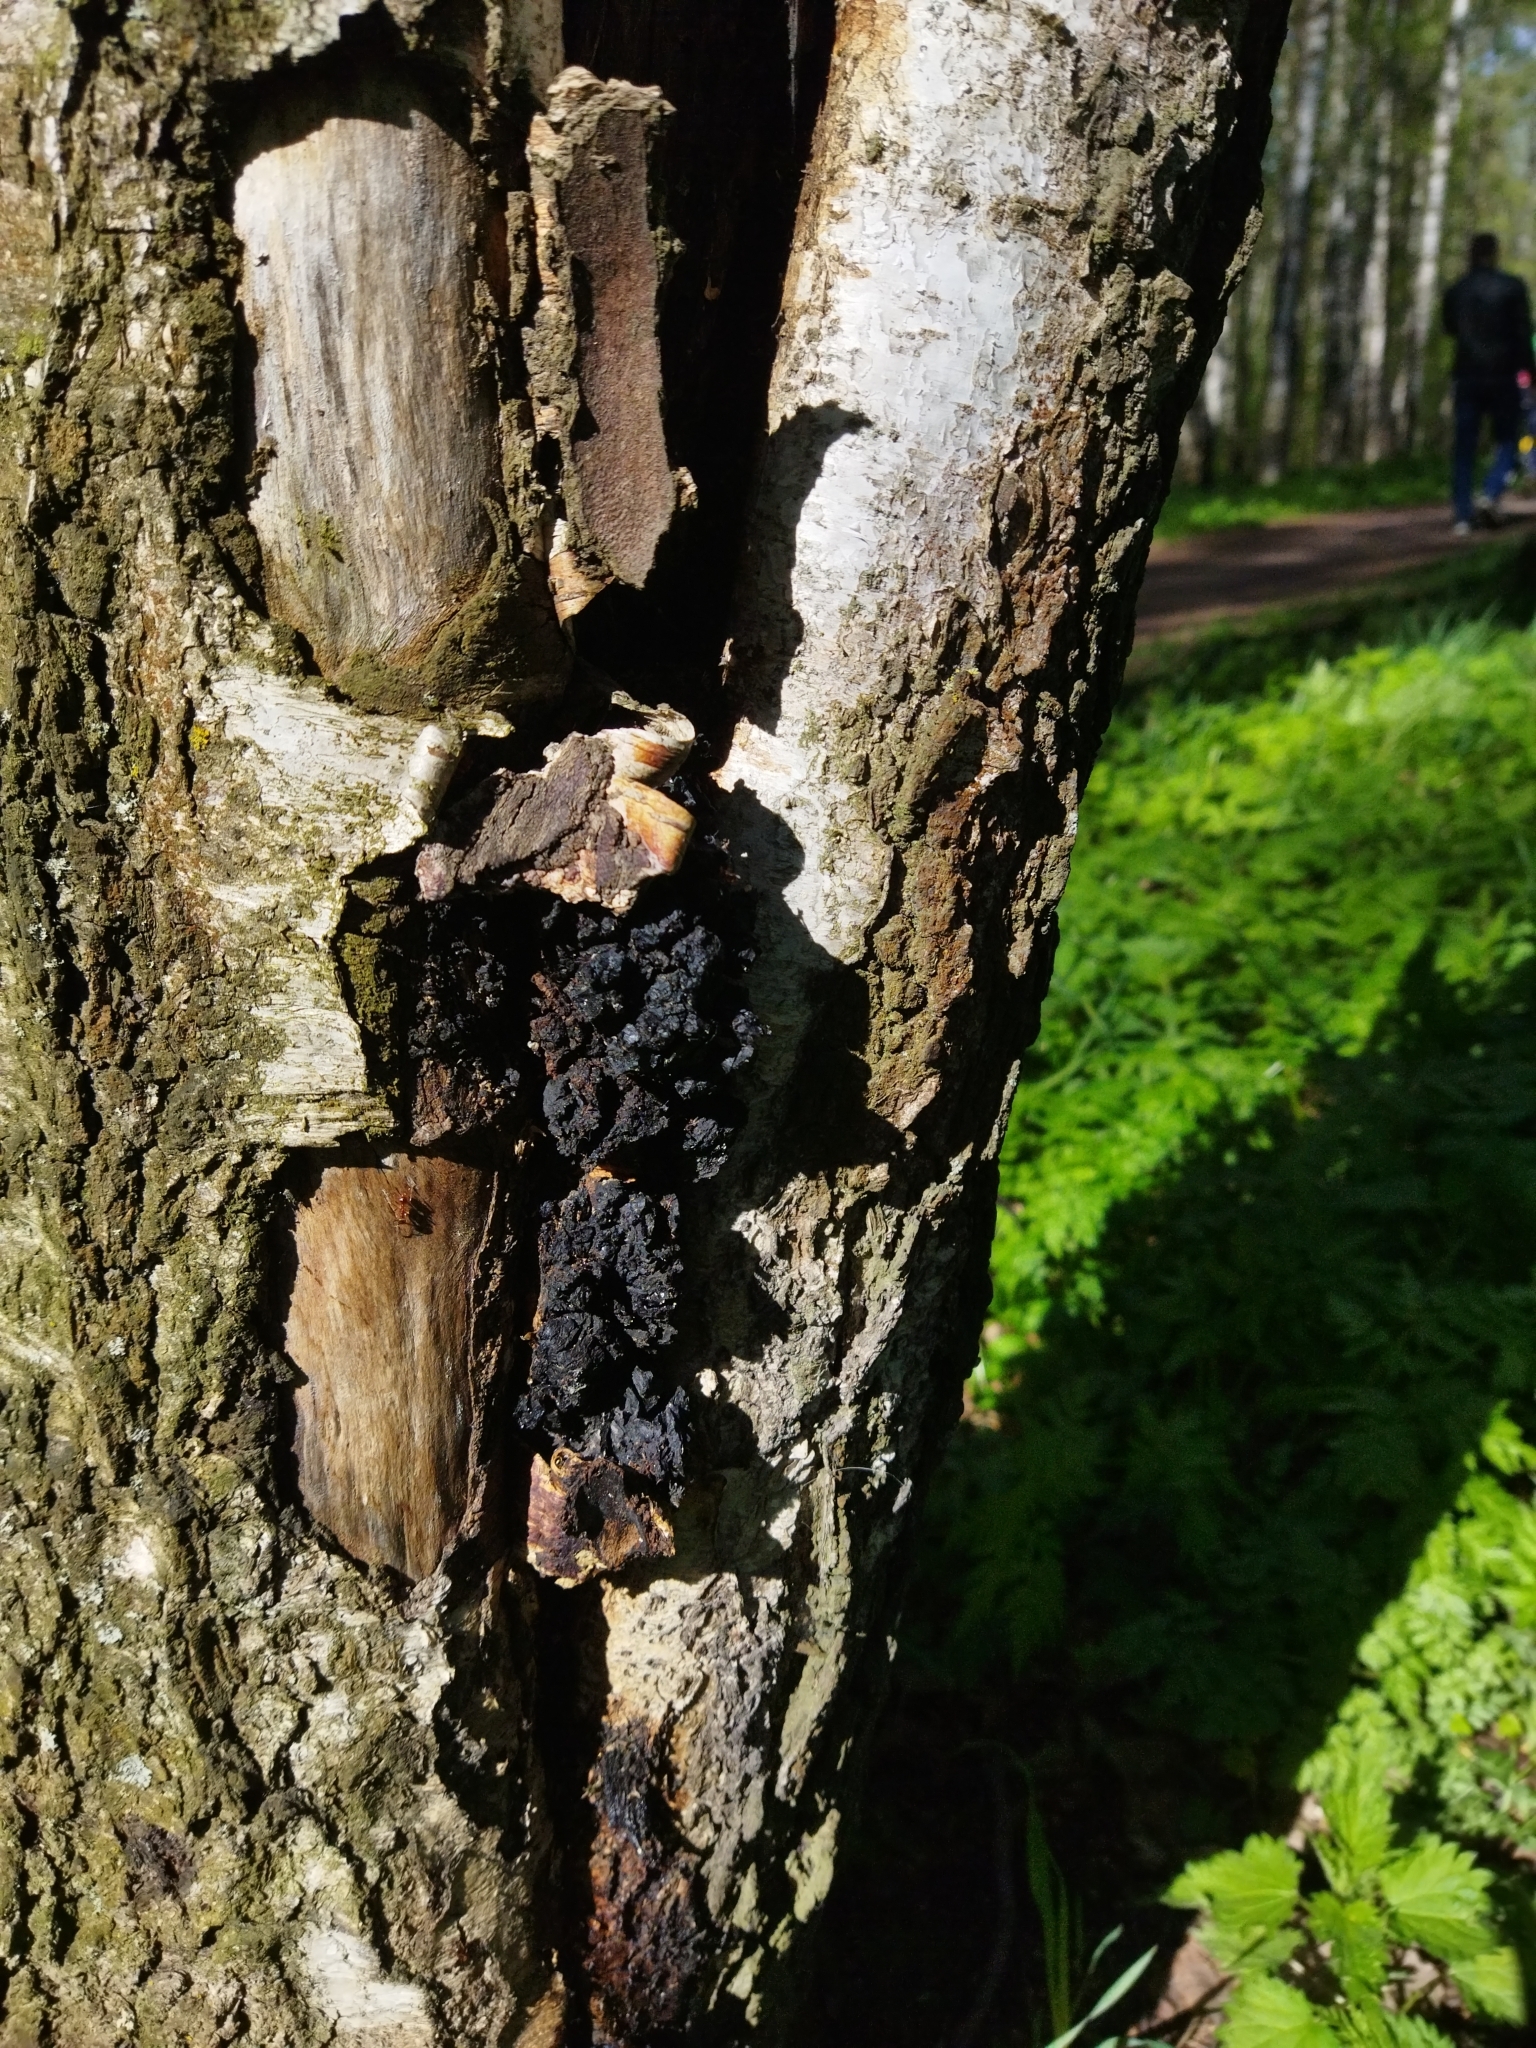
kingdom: Fungi
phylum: Basidiomycota
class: Agaricomycetes
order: Hymenochaetales
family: Hymenochaetaceae
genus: Inonotus
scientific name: Inonotus obliquus
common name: Chaga
